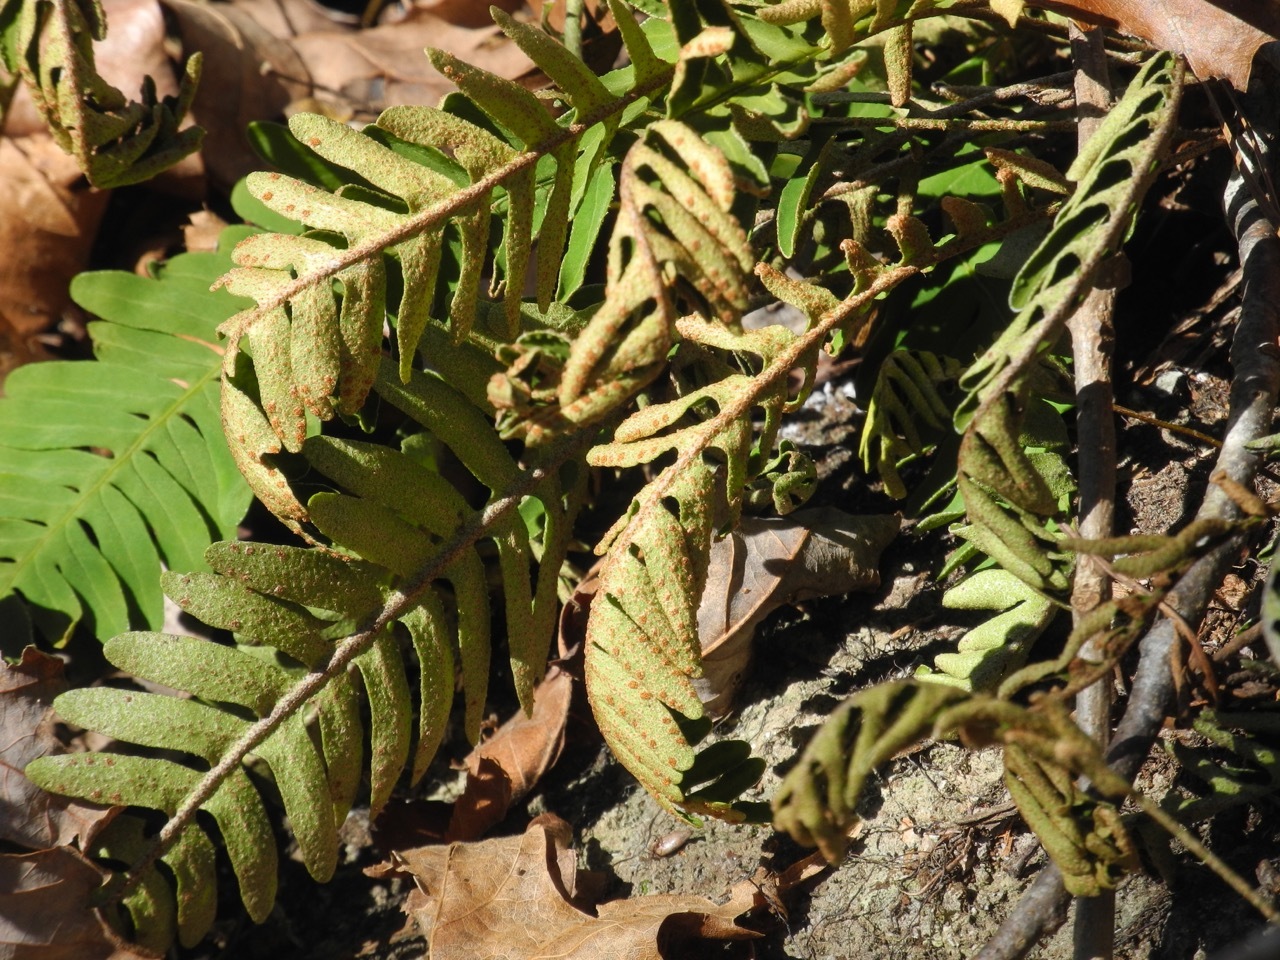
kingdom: Plantae
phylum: Tracheophyta
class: Polypodiopsida
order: Polypodiales
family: Polypodiaceae
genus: Pleopeltis
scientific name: Pleopeltis michauxiana
